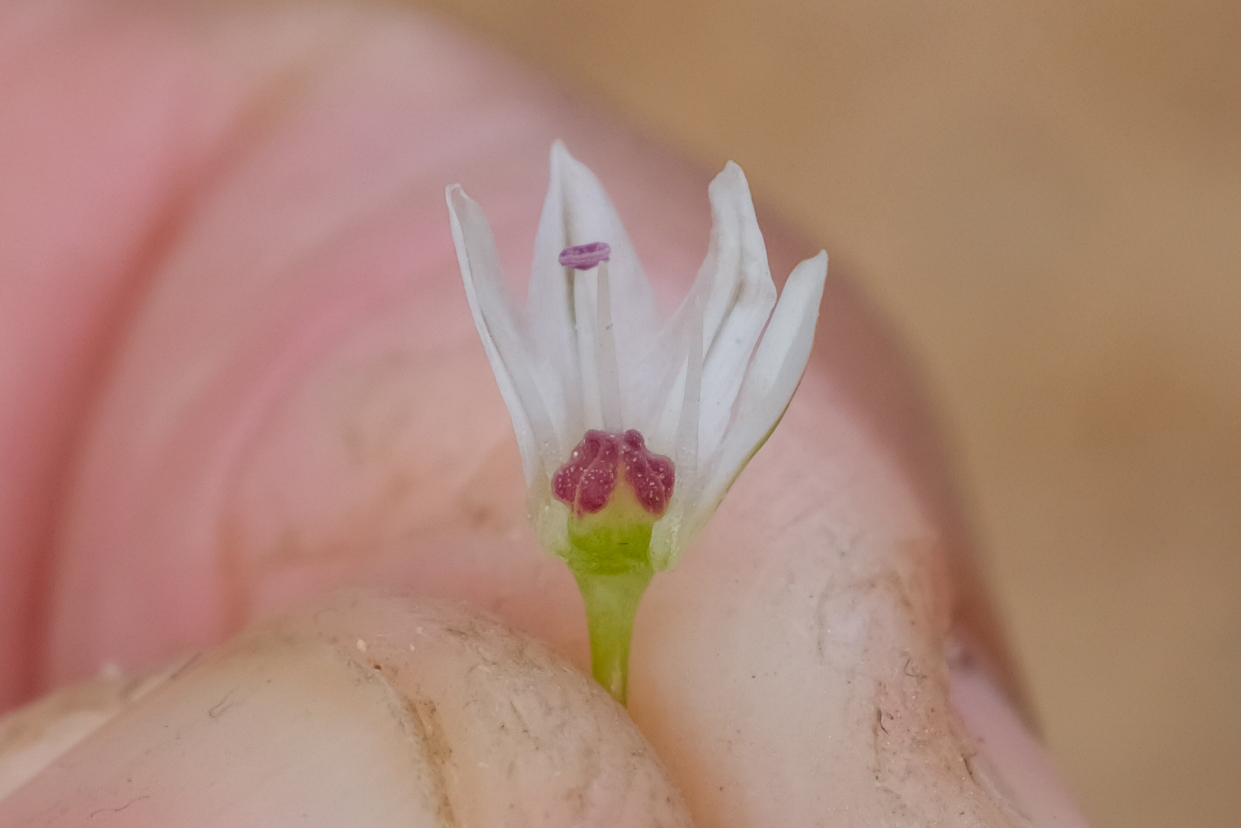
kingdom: Plantae
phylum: Tracheophyta
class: Liliopsida
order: Asparagales
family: Amaryllidaceae
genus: Allium
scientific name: Allium lacunosum
